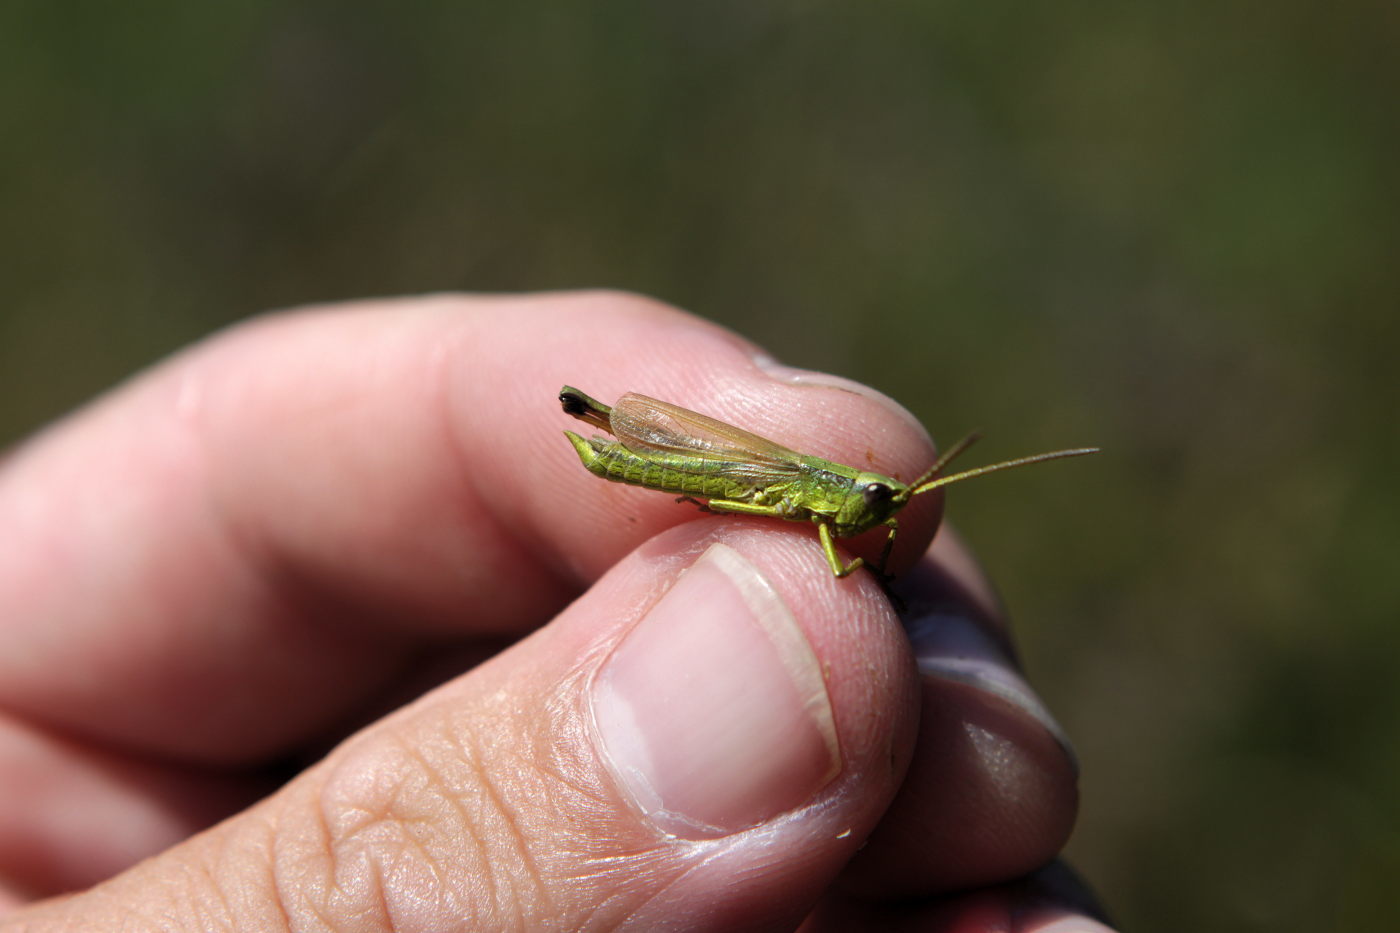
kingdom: Animalia
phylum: Arthropoda
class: Insecta
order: Orthoptera
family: Acrididae
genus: Chrysochraon
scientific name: Chrysochraon dispar
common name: Large gold grasshopper
